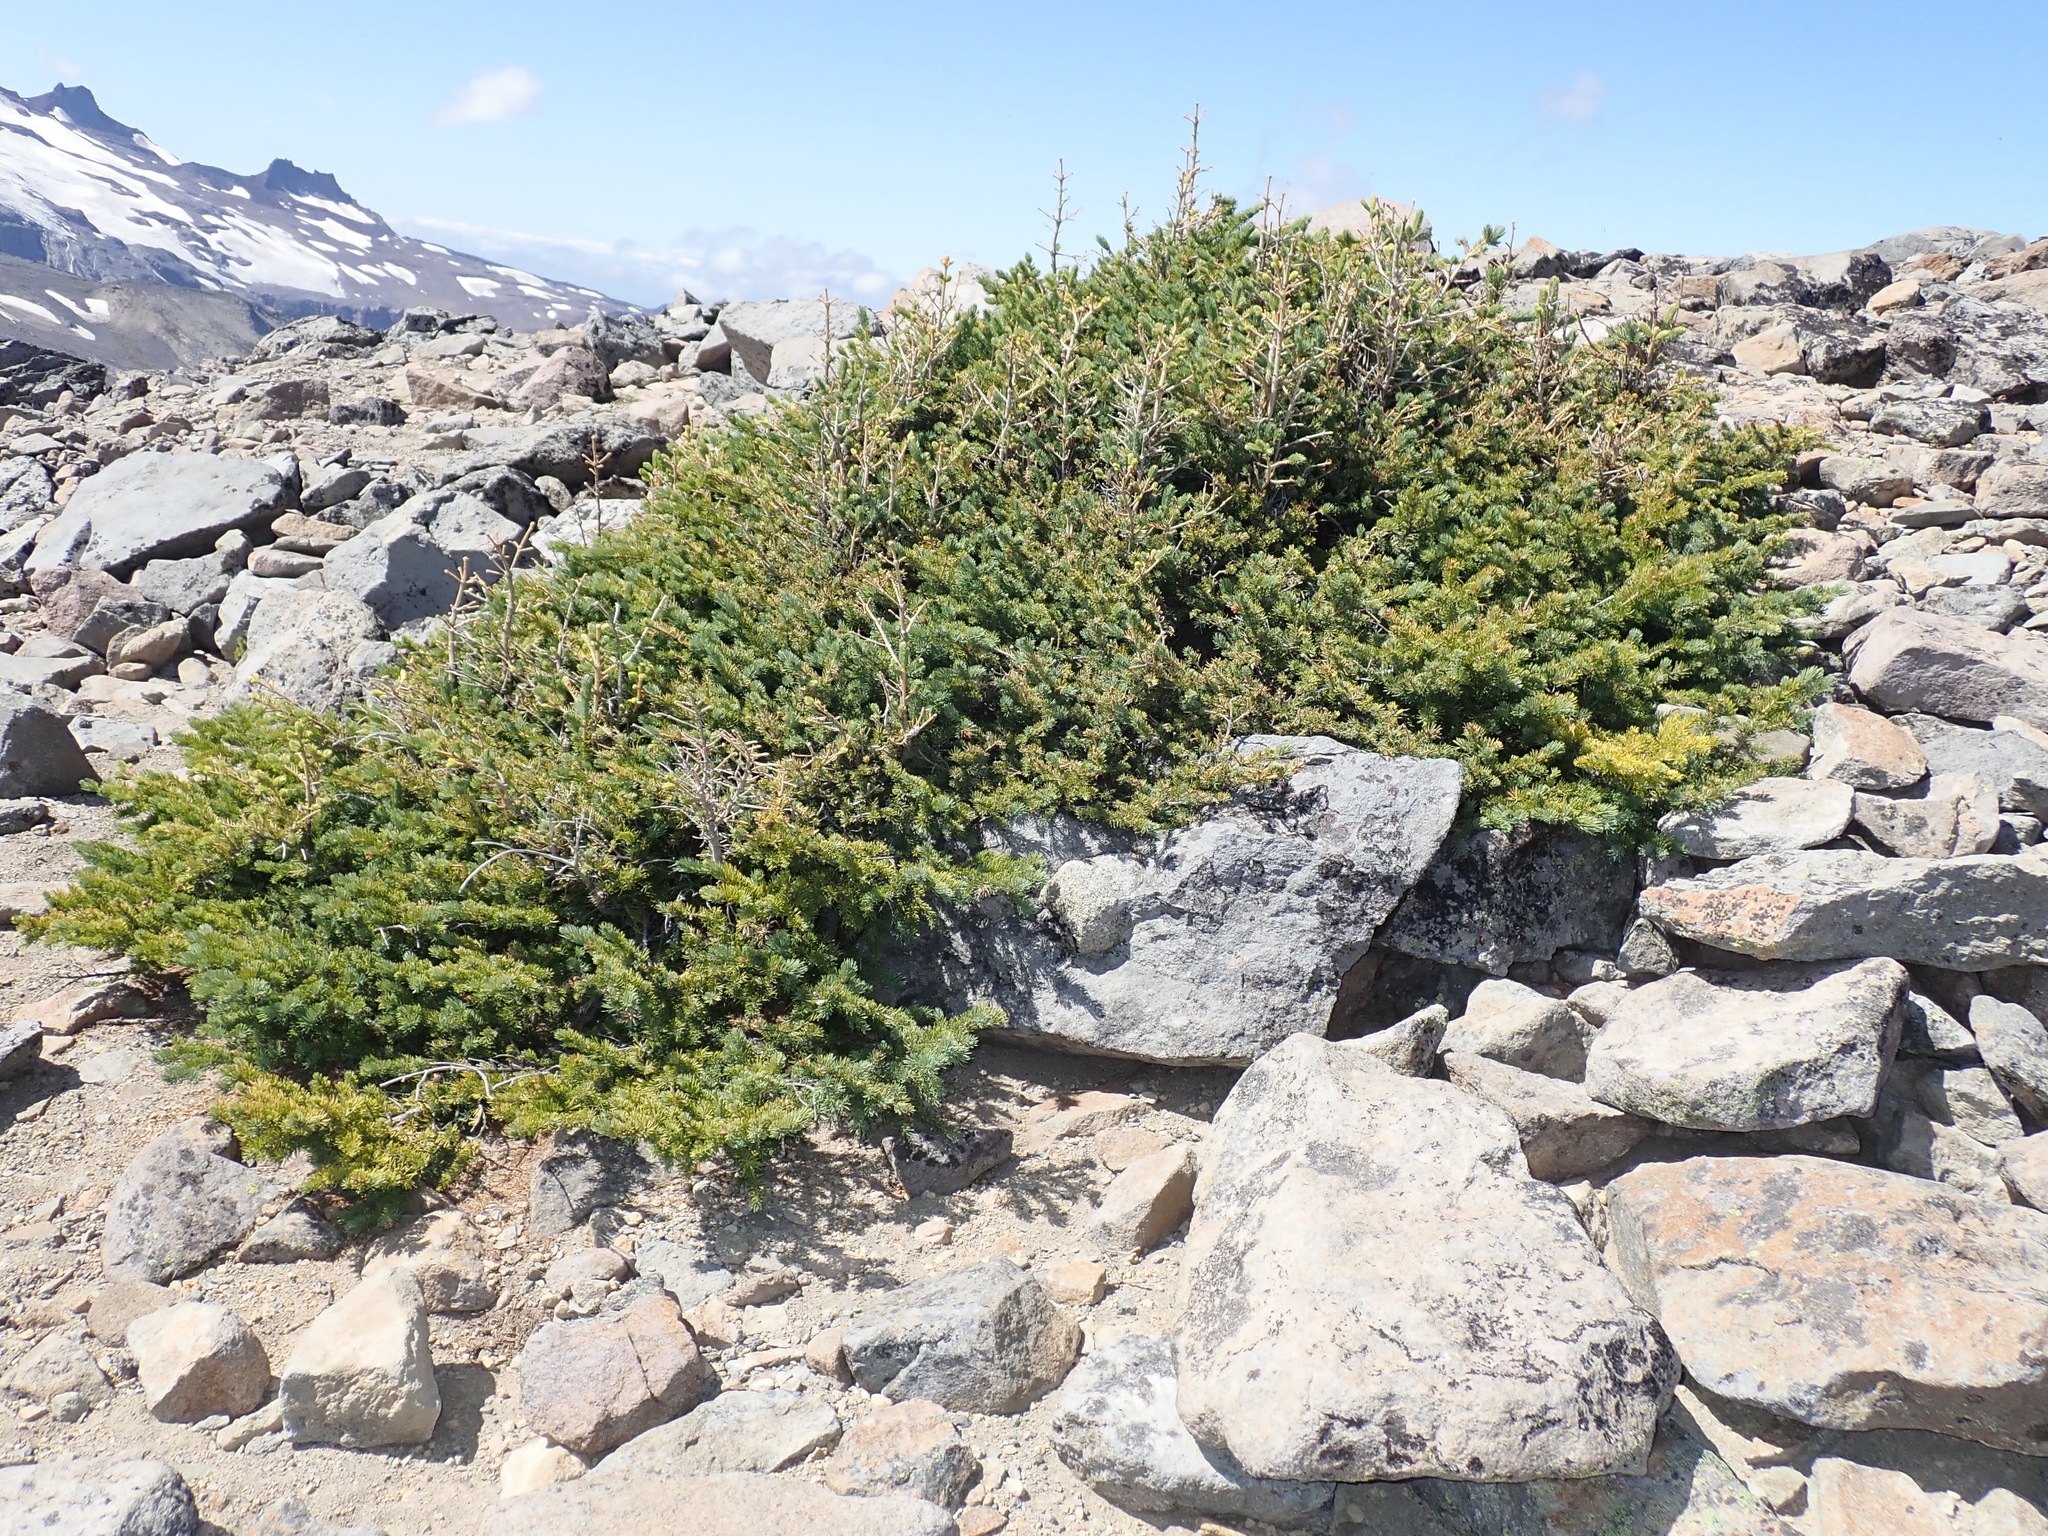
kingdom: Plantae
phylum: Tracheophyta
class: Pinopsida
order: Pinales
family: Pinaceae
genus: Picea
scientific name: Picea engelmannii
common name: Engelmann spruce
